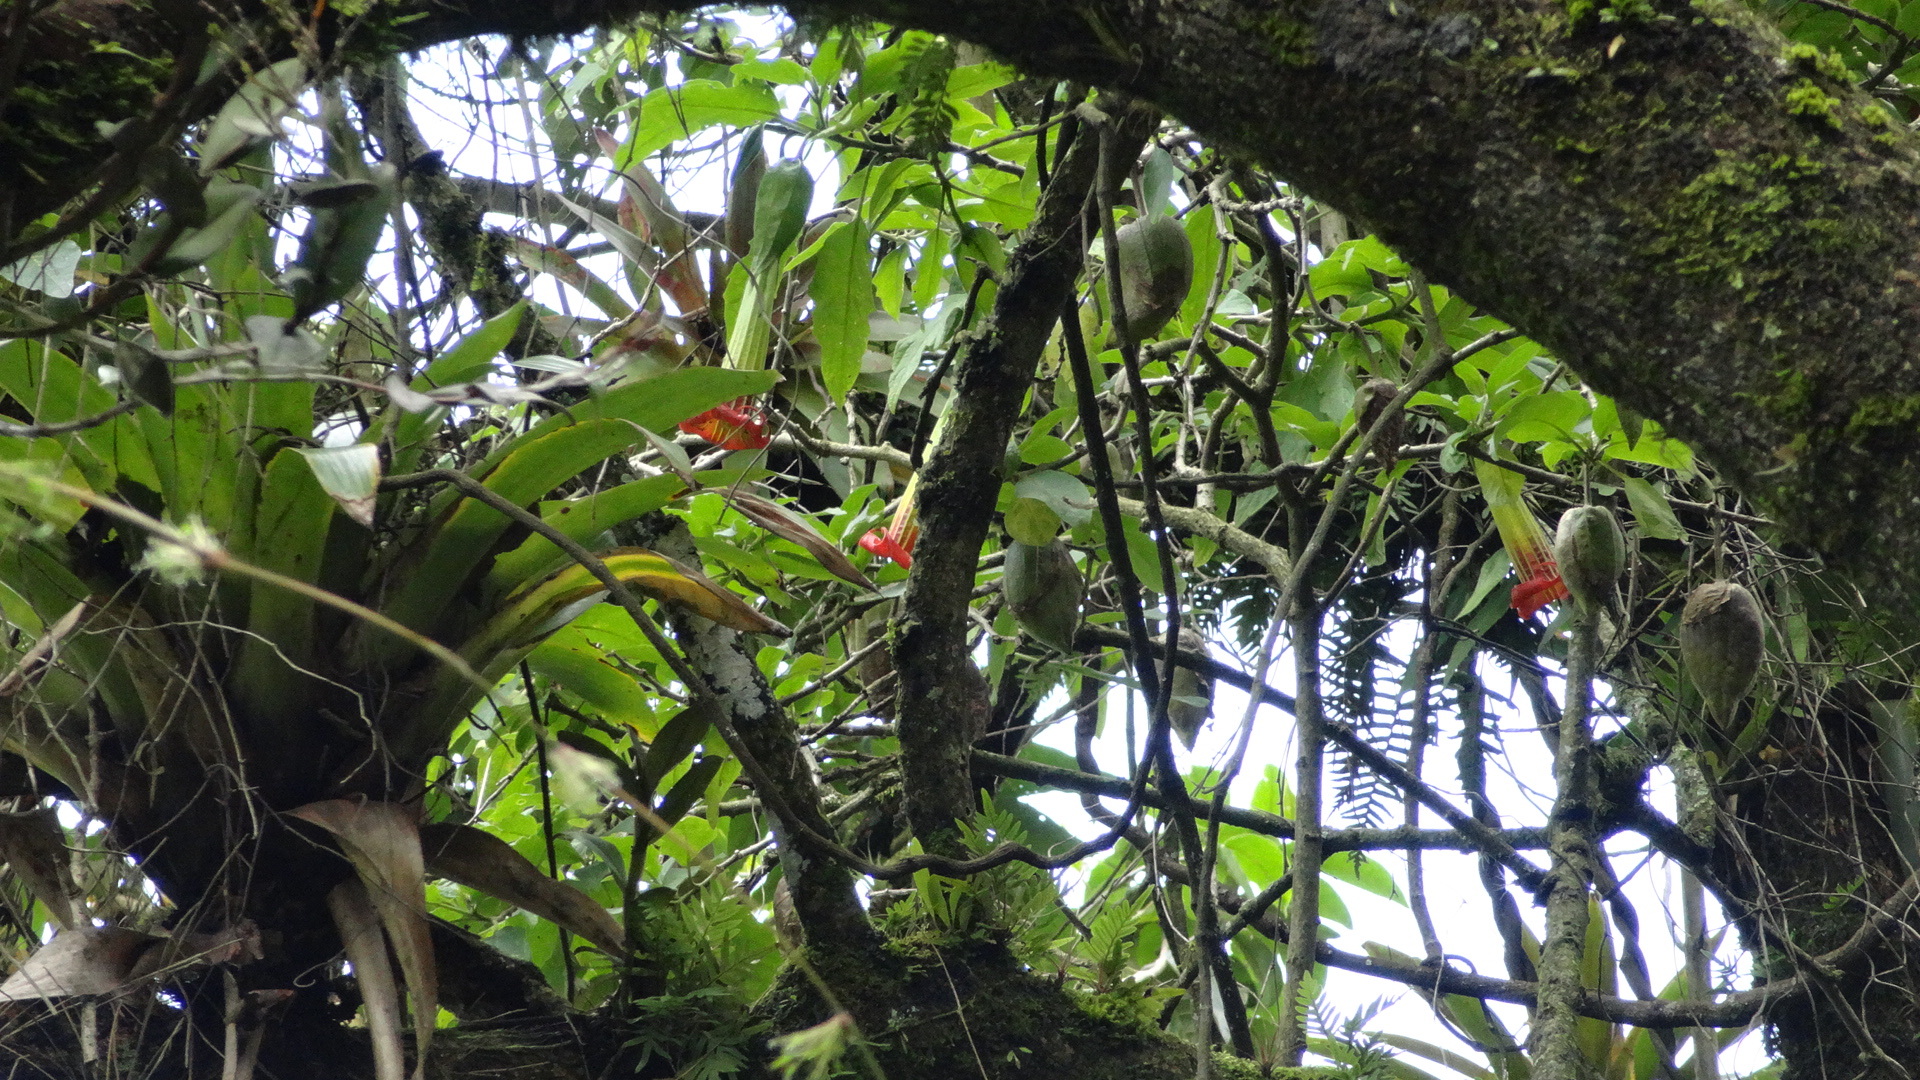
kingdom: Plantae
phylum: Tracheophyta
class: Magnoliopsida
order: Solanales
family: Solanaceae
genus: Brugmansia
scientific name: Brugmansia sanguinea
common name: Red floripontio
